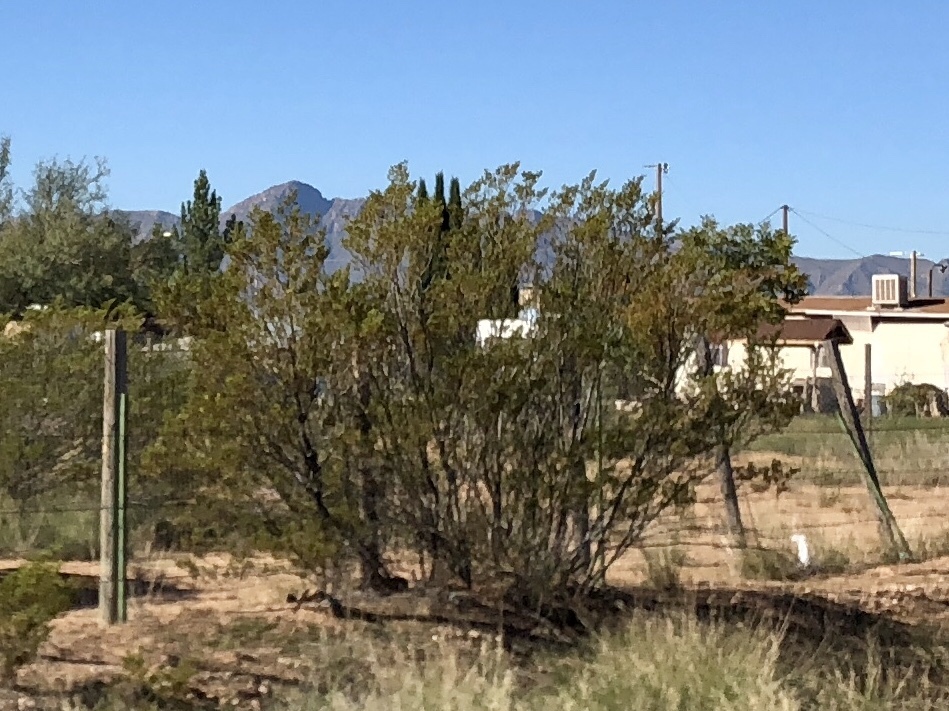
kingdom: Plantae
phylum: Tracheophyta
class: Magnoliopsida
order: Zygophyllales
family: Zygophyllaceae
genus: Larrea
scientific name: Larrea tridentata
